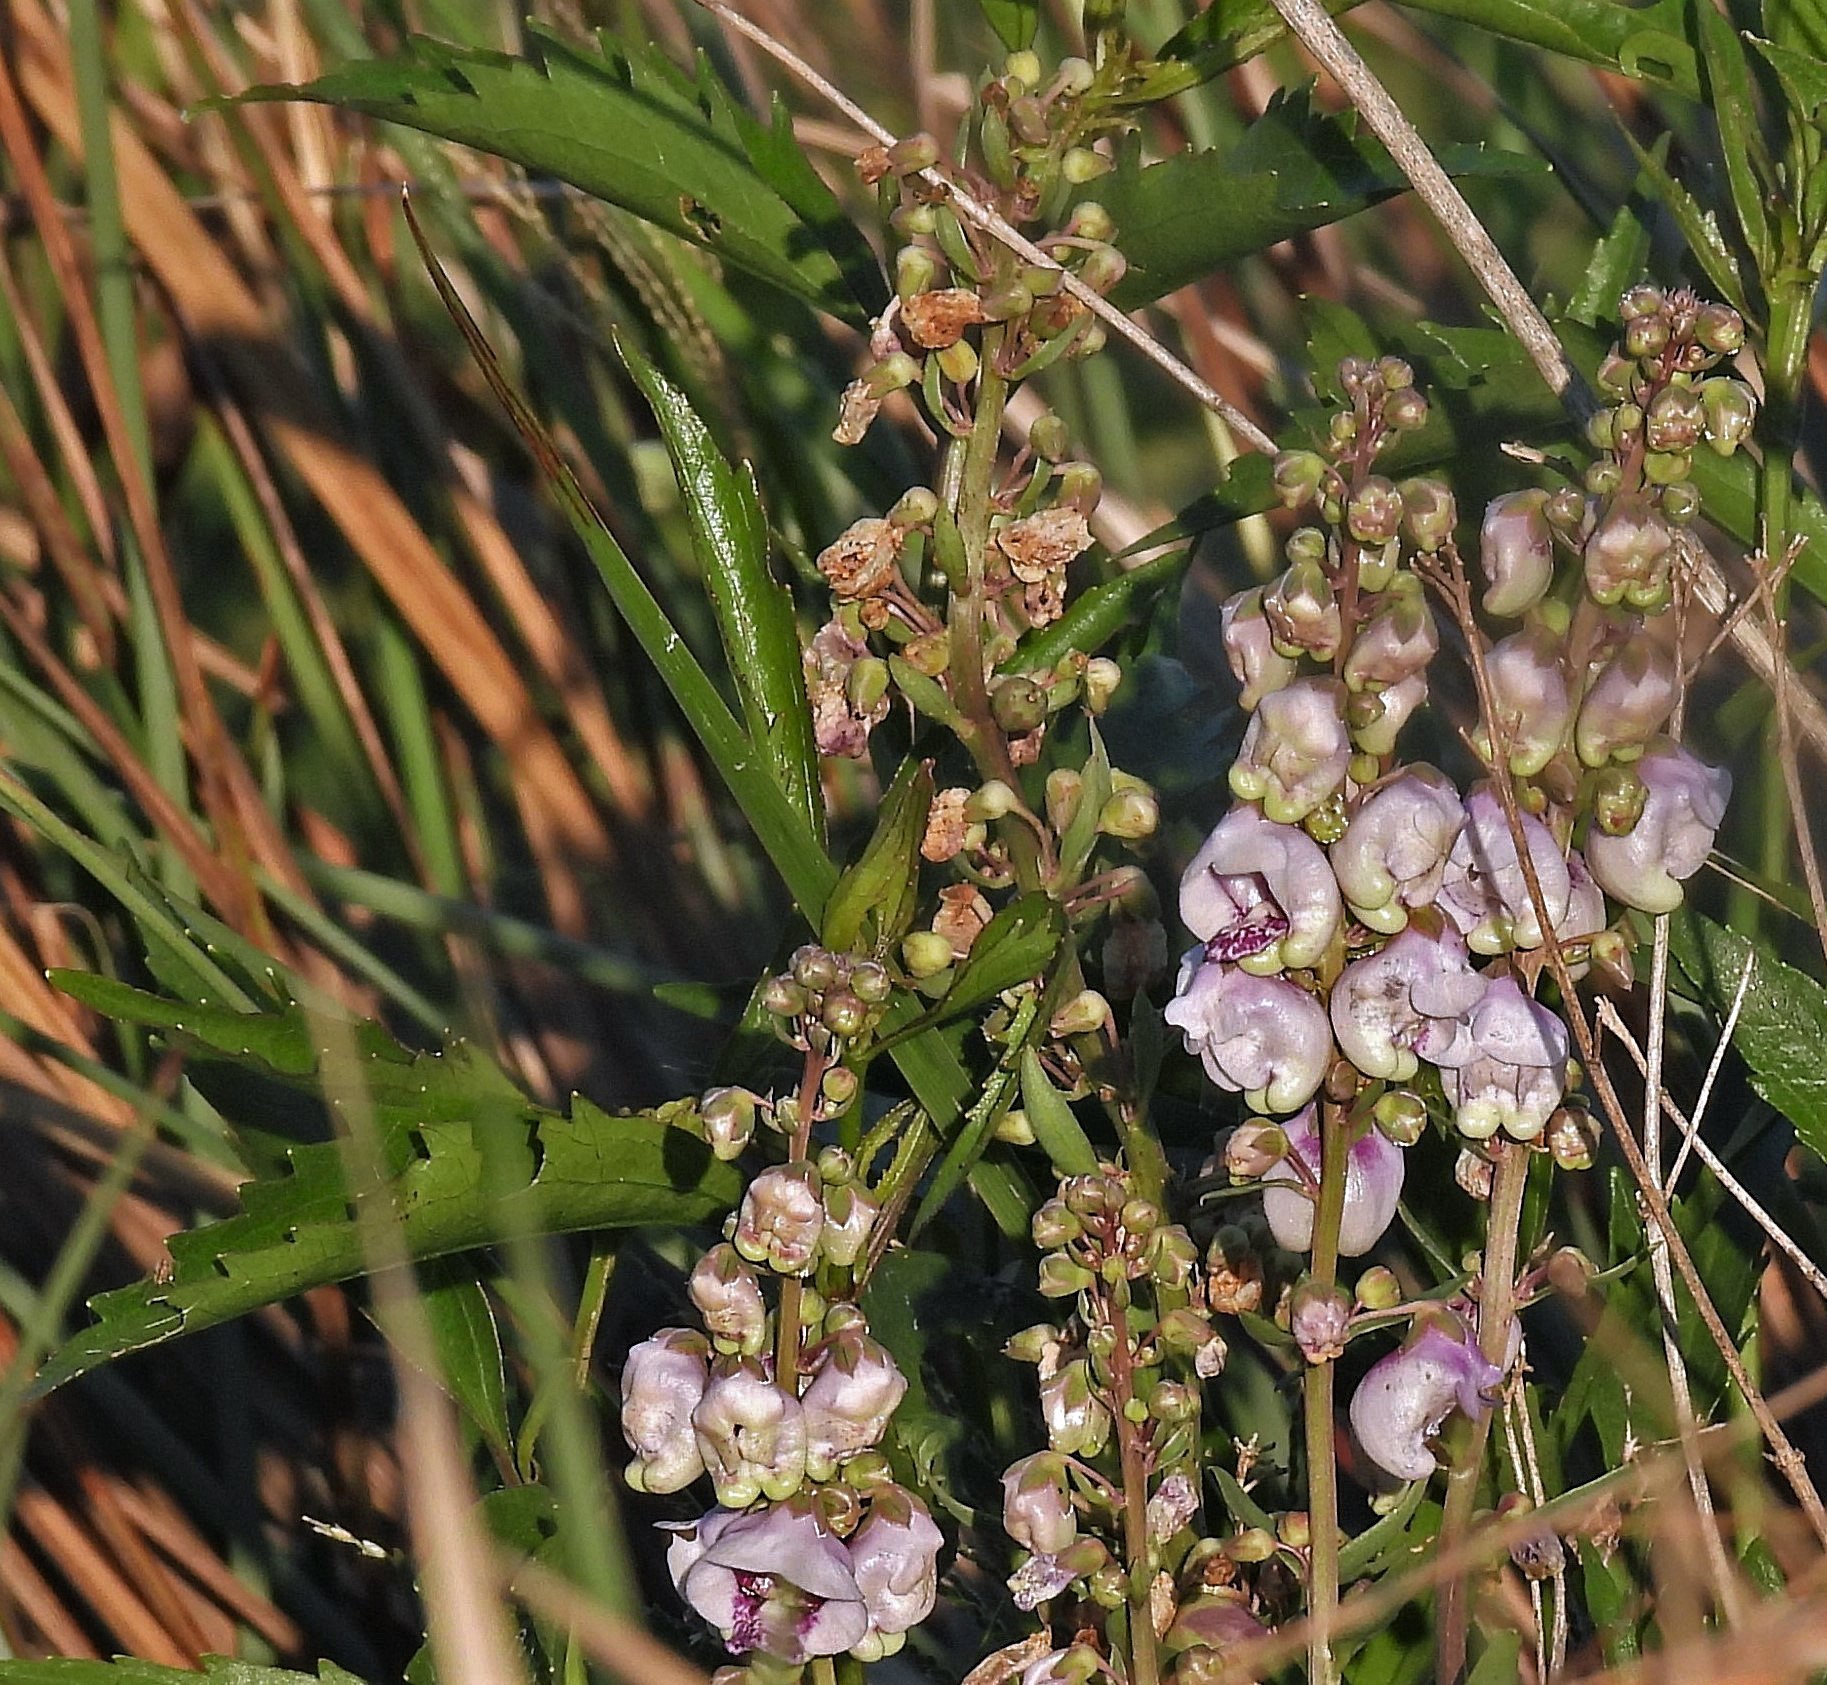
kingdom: Plantae
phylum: Tracheophyta
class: Magnoliopsida
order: Lamiales
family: Plantaginaceae
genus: Angelonia
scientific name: Angelonia integerrima
